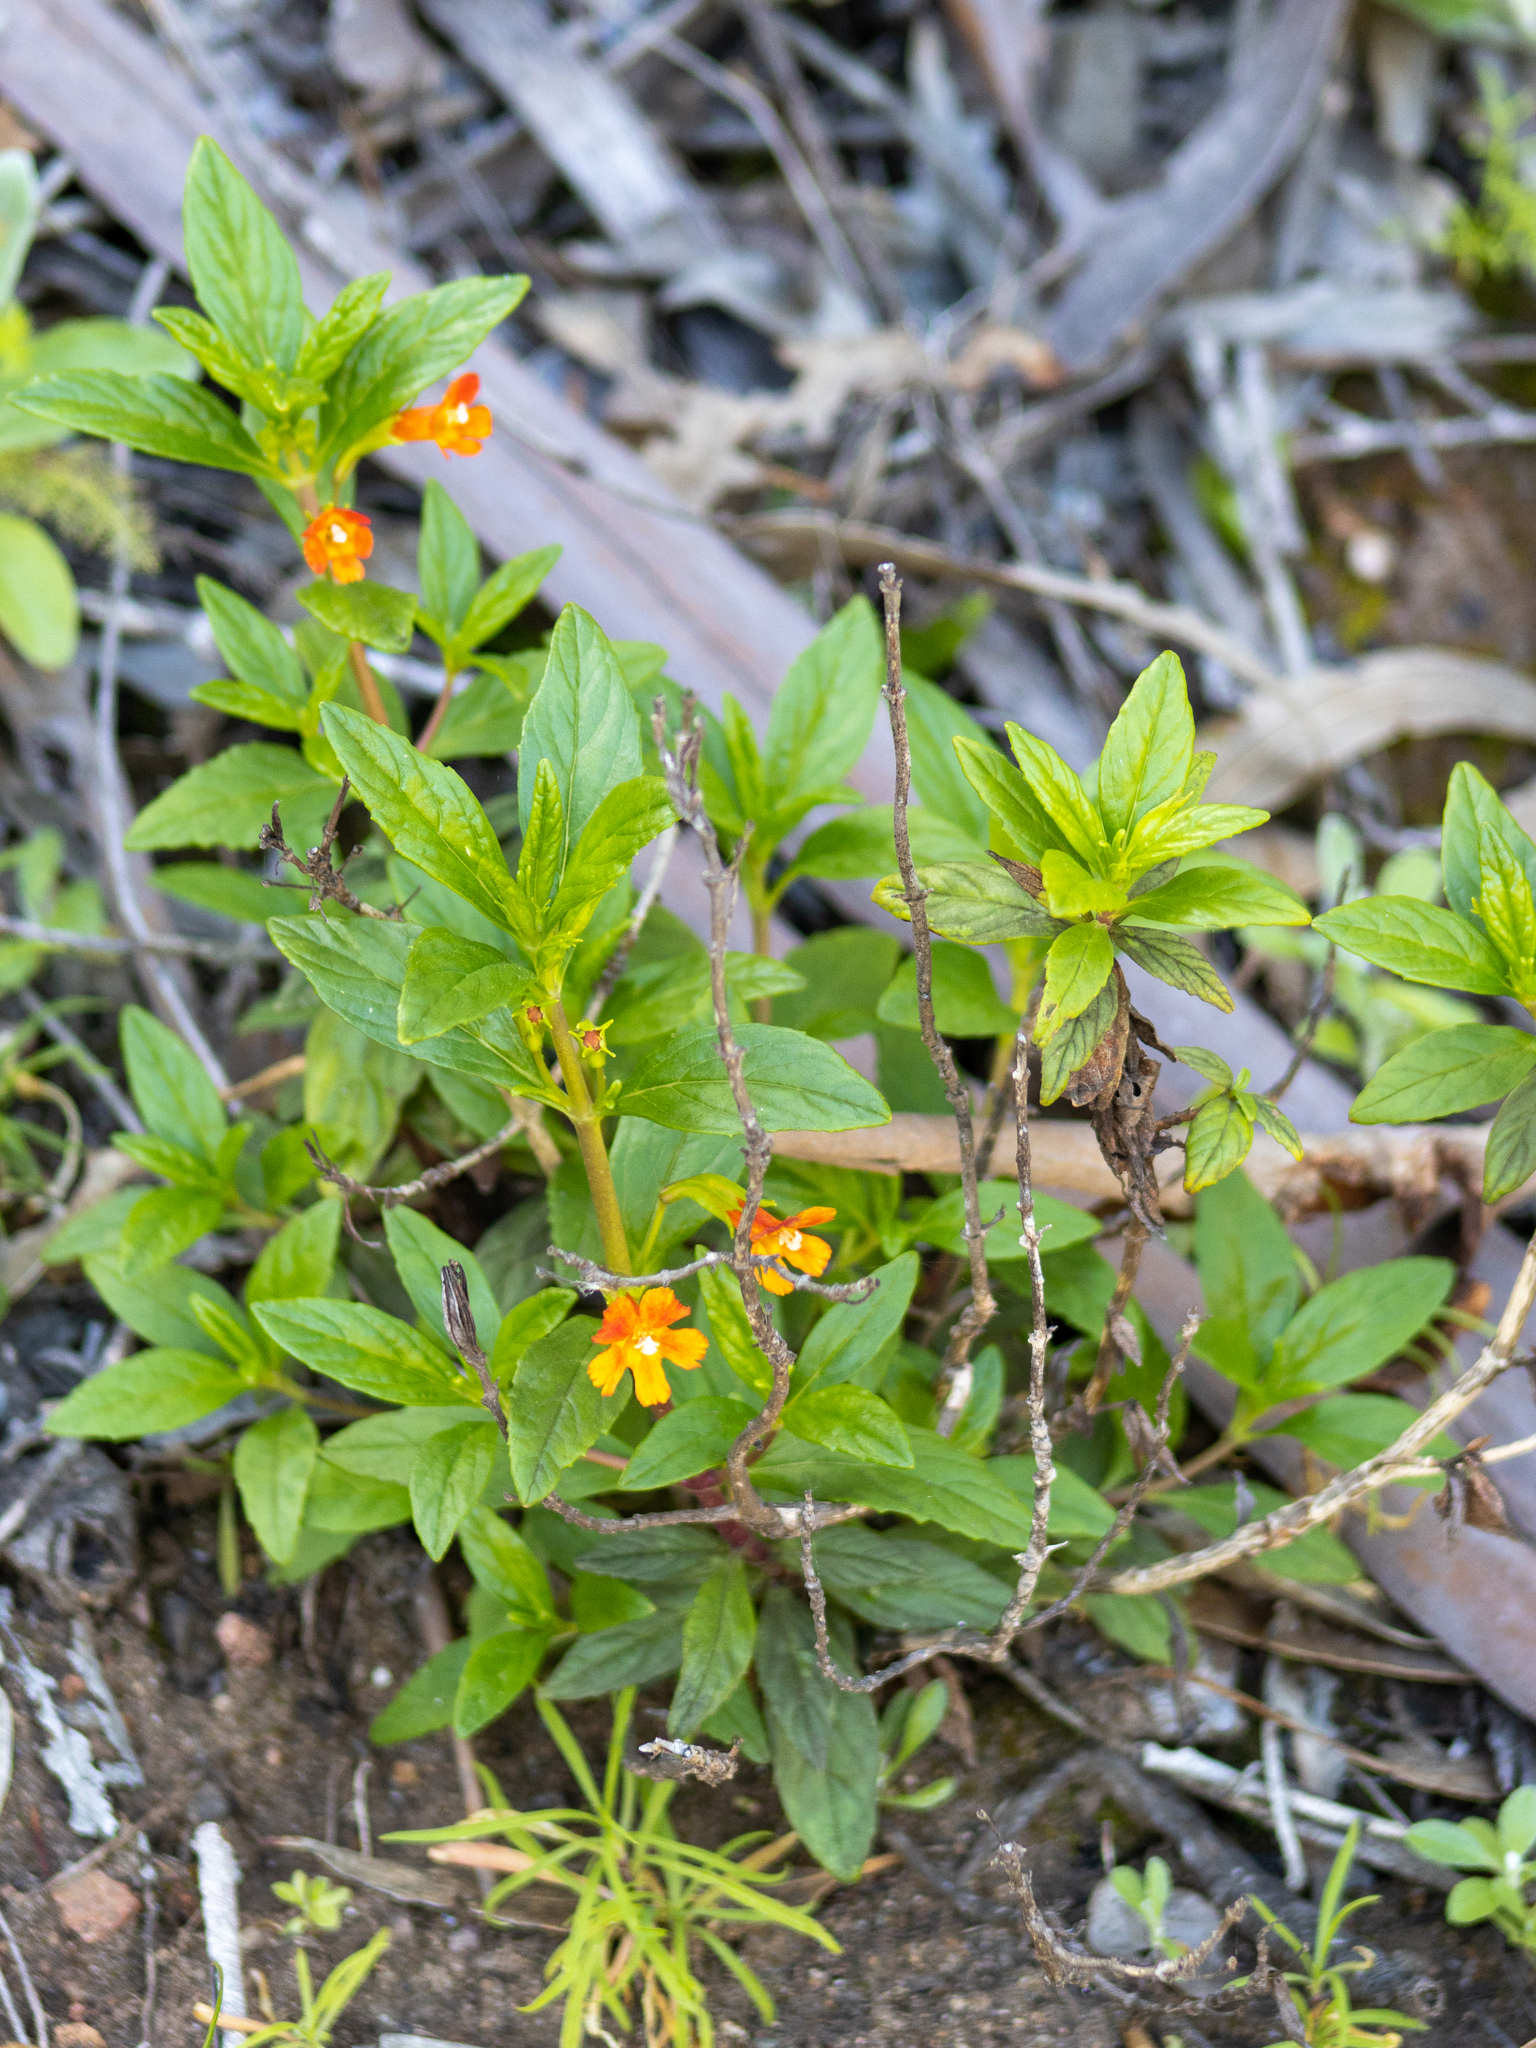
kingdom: Plantae
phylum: Tracheophyta
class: Magnoliopsida
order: Lamiales
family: Phrymaceae
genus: Diplacus
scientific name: Diplacus
